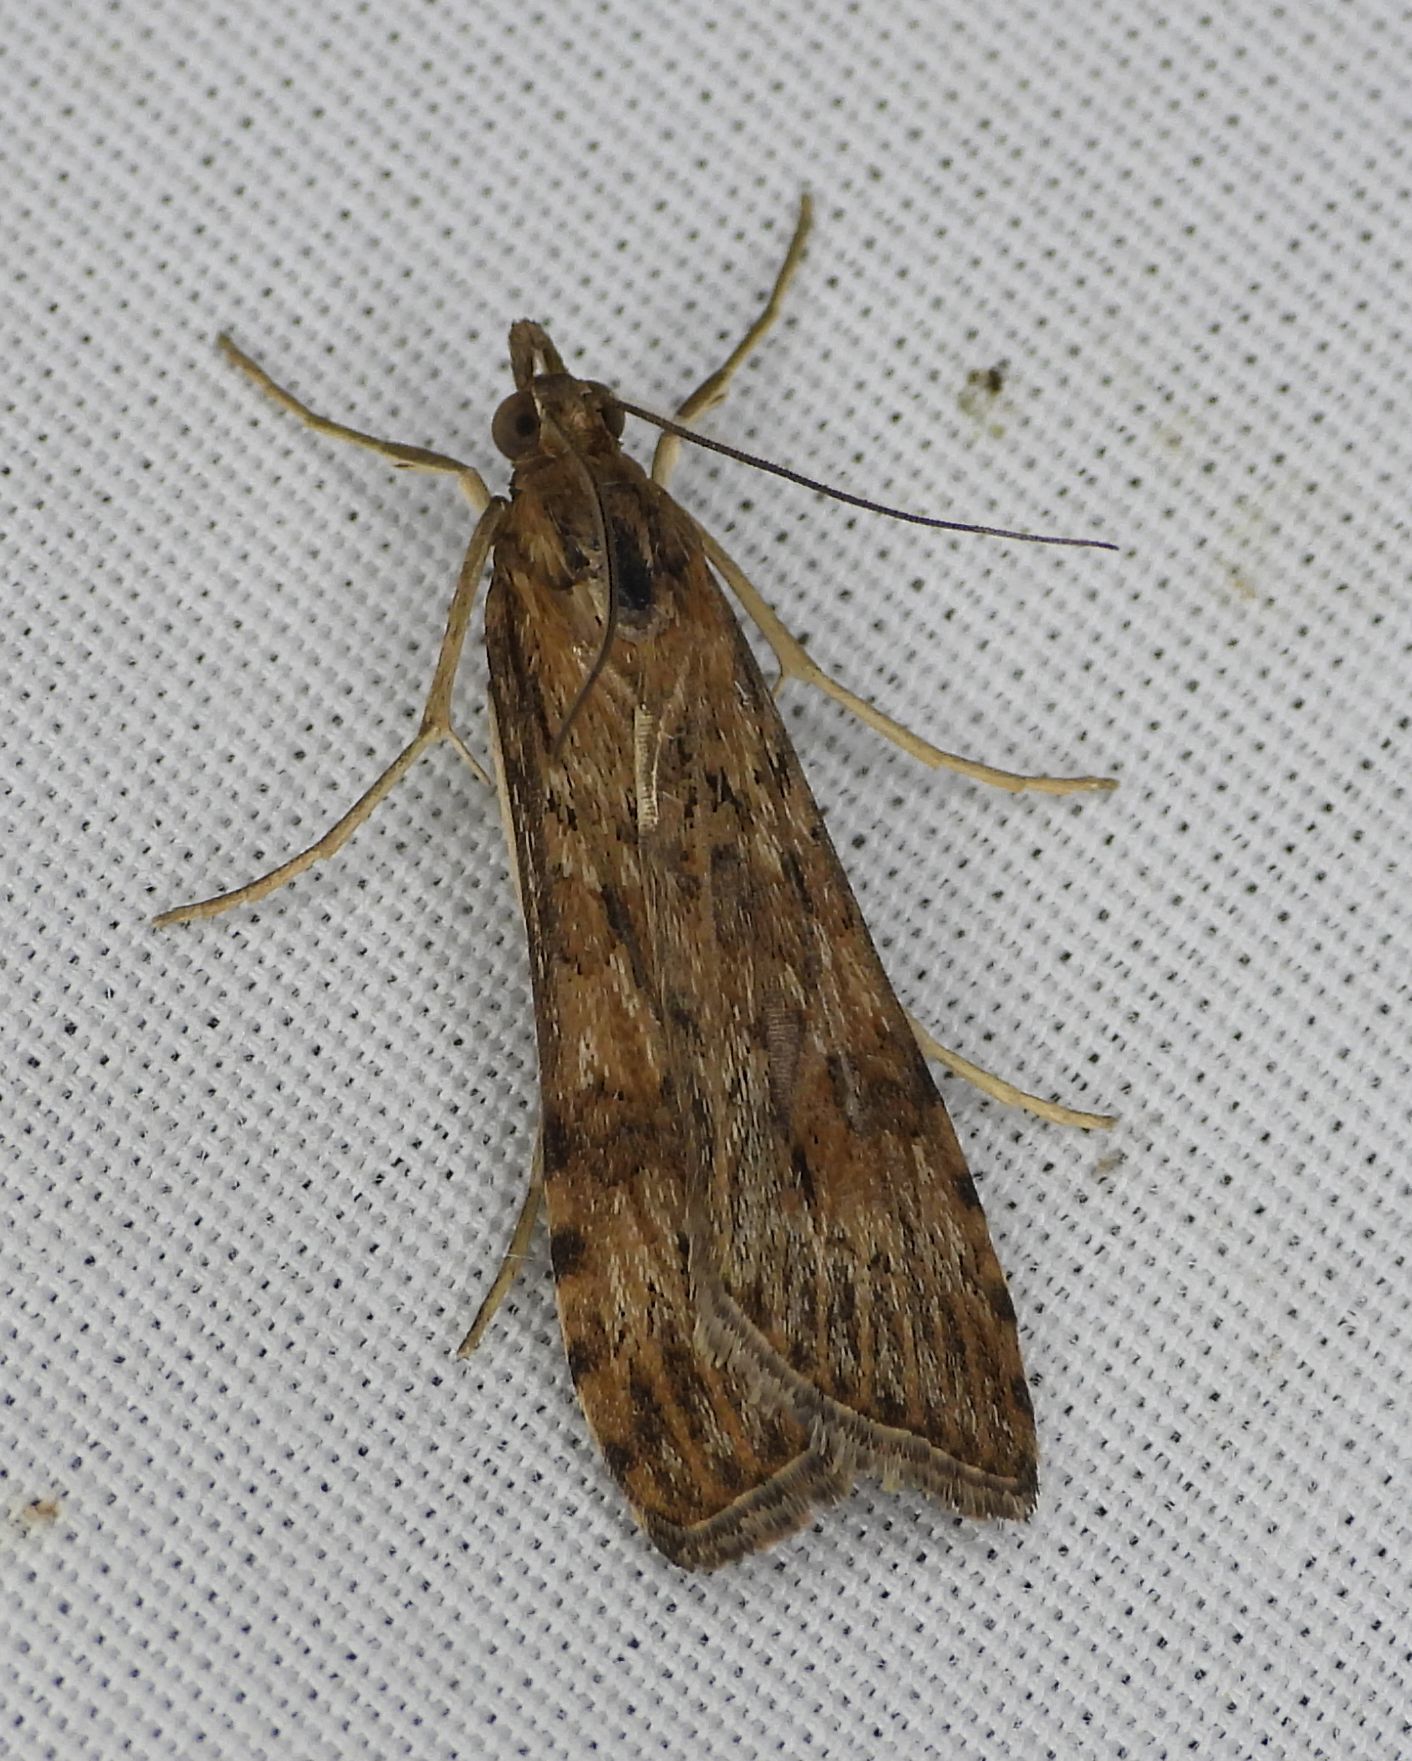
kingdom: Animalia
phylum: Arthropoda
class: Insecta
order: Lepidoptera
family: Crambidae
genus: Nomophila
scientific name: Nomophila nearctica
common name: American rush veneer
